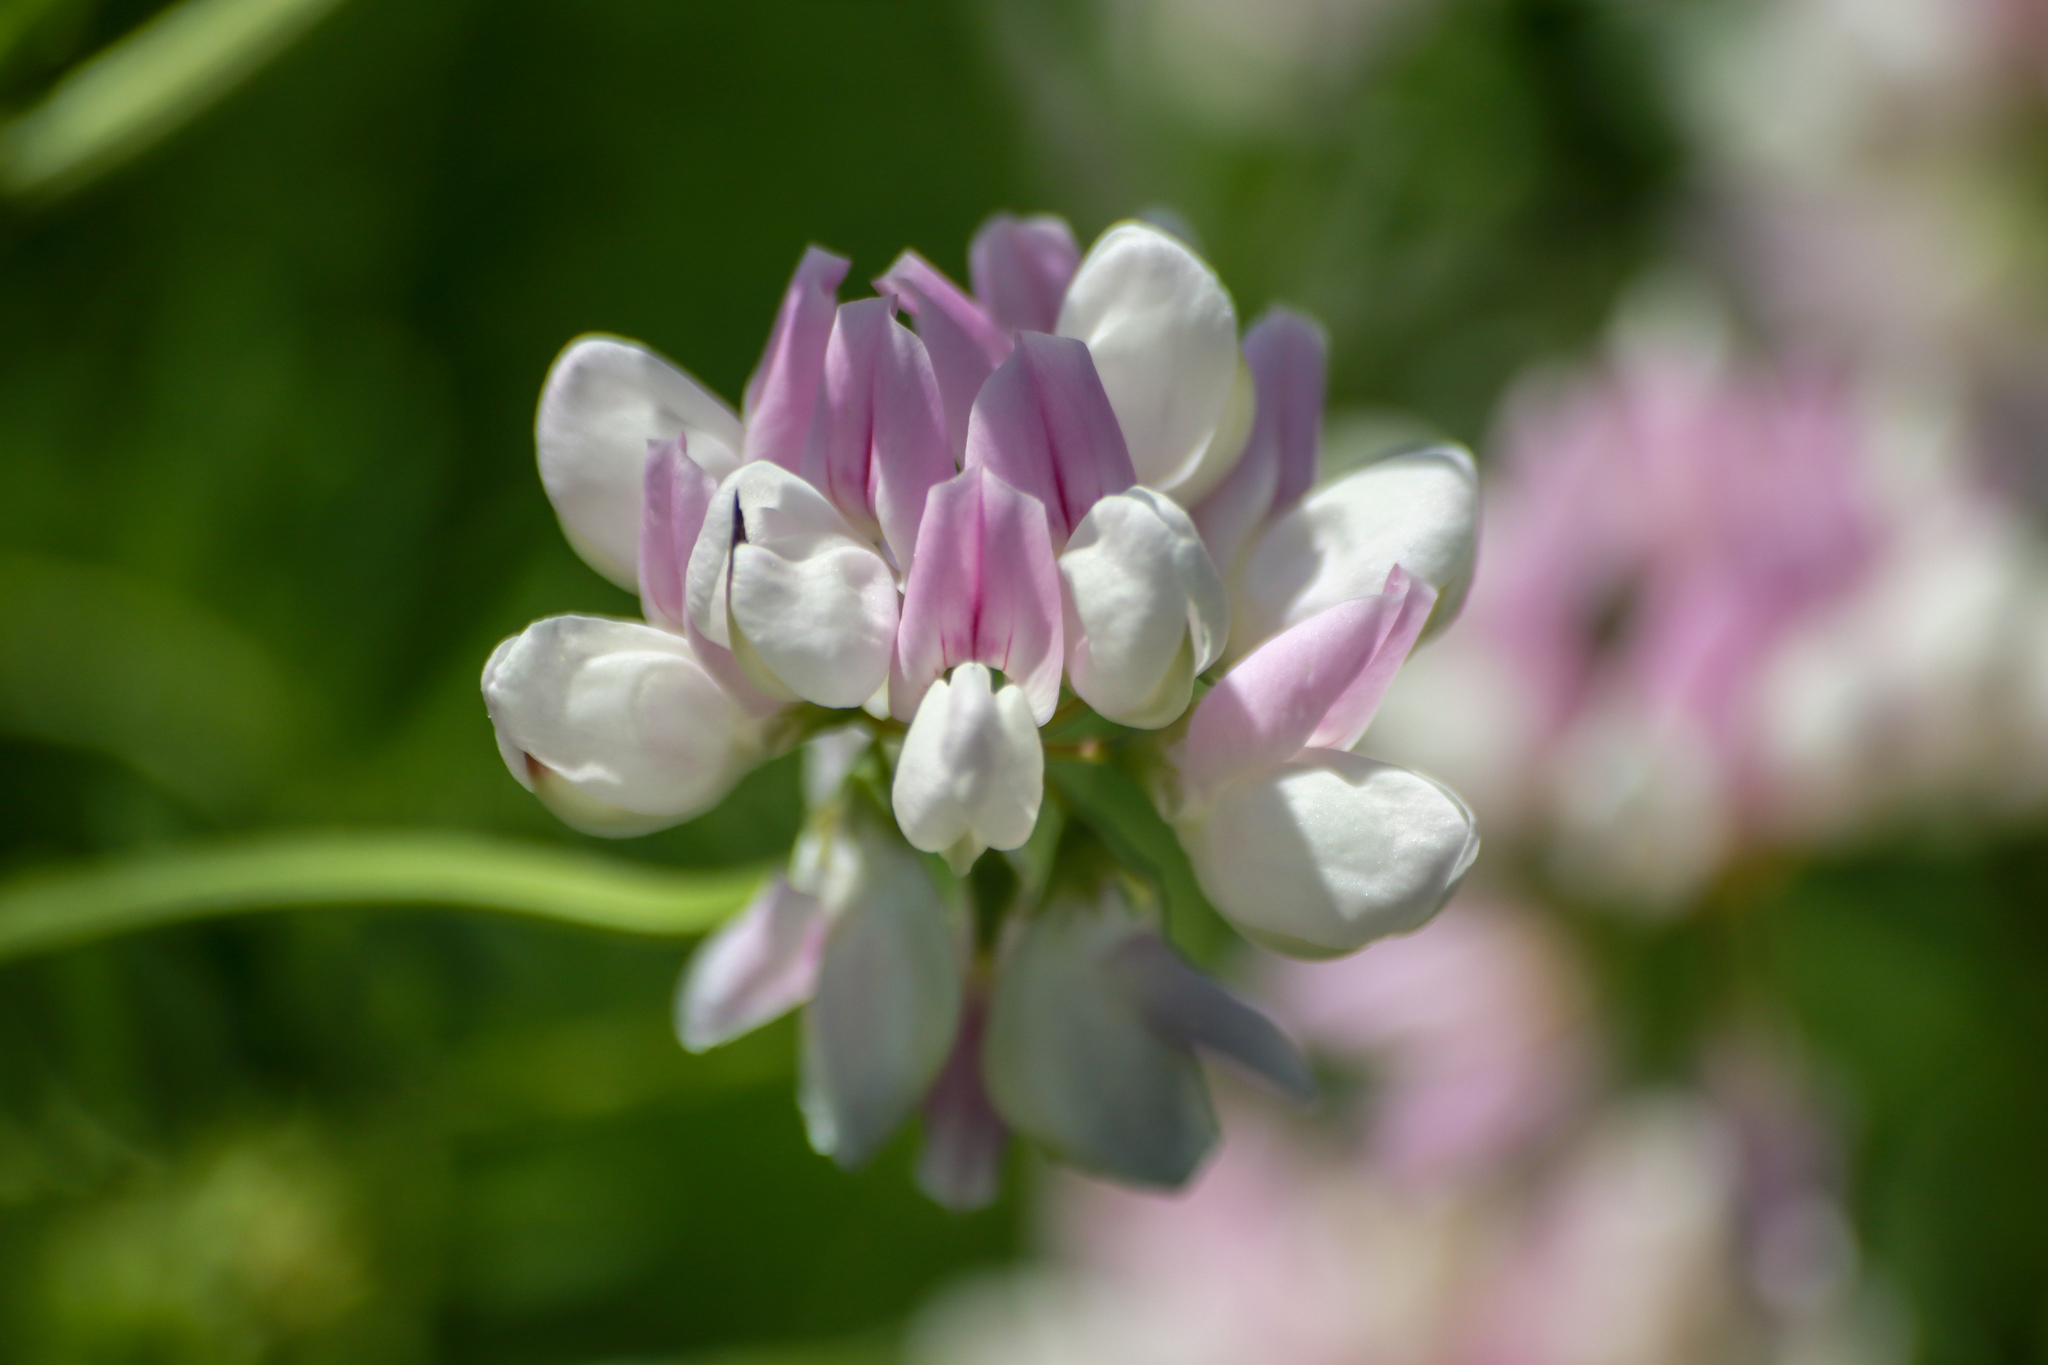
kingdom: Plantae
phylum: Tracheophyta
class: Magnoliopsida
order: Fabales
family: Fabaceae
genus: Coronilla
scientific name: Coronilla varia
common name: Crownvetch
